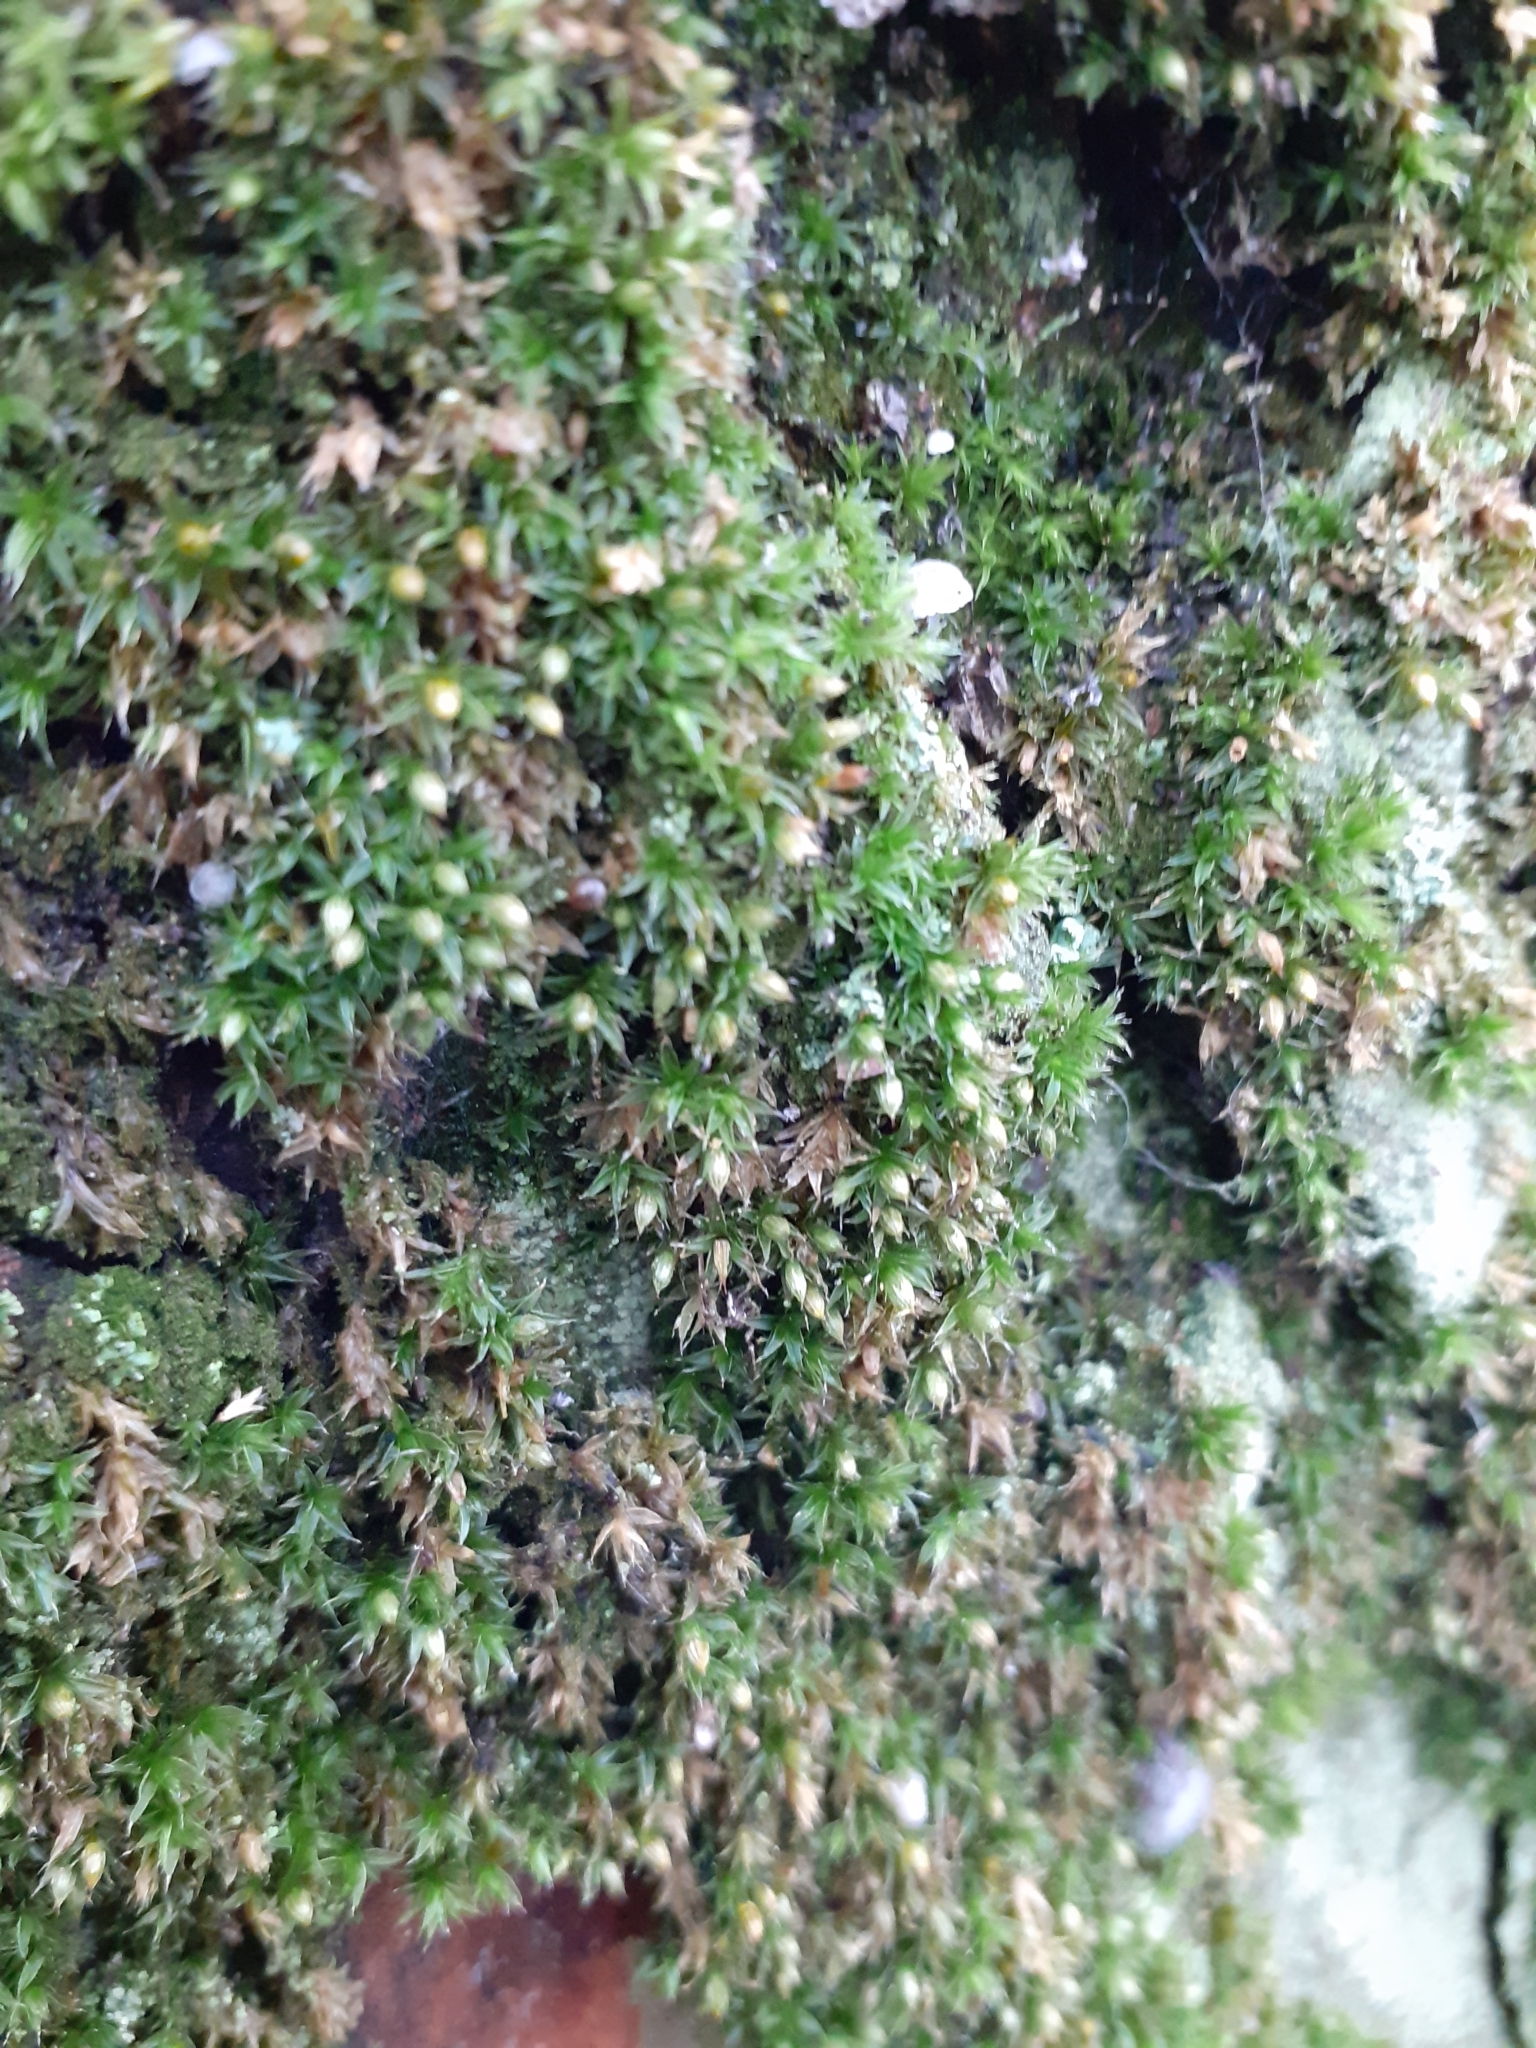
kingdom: Plantae
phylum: Bryophyta
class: Bryopsida
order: Orthotrichales
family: Orthotrichaceae
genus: Orthotrichum
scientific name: Orthotrichum diaphanum
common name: White-tipped bristle-moss
